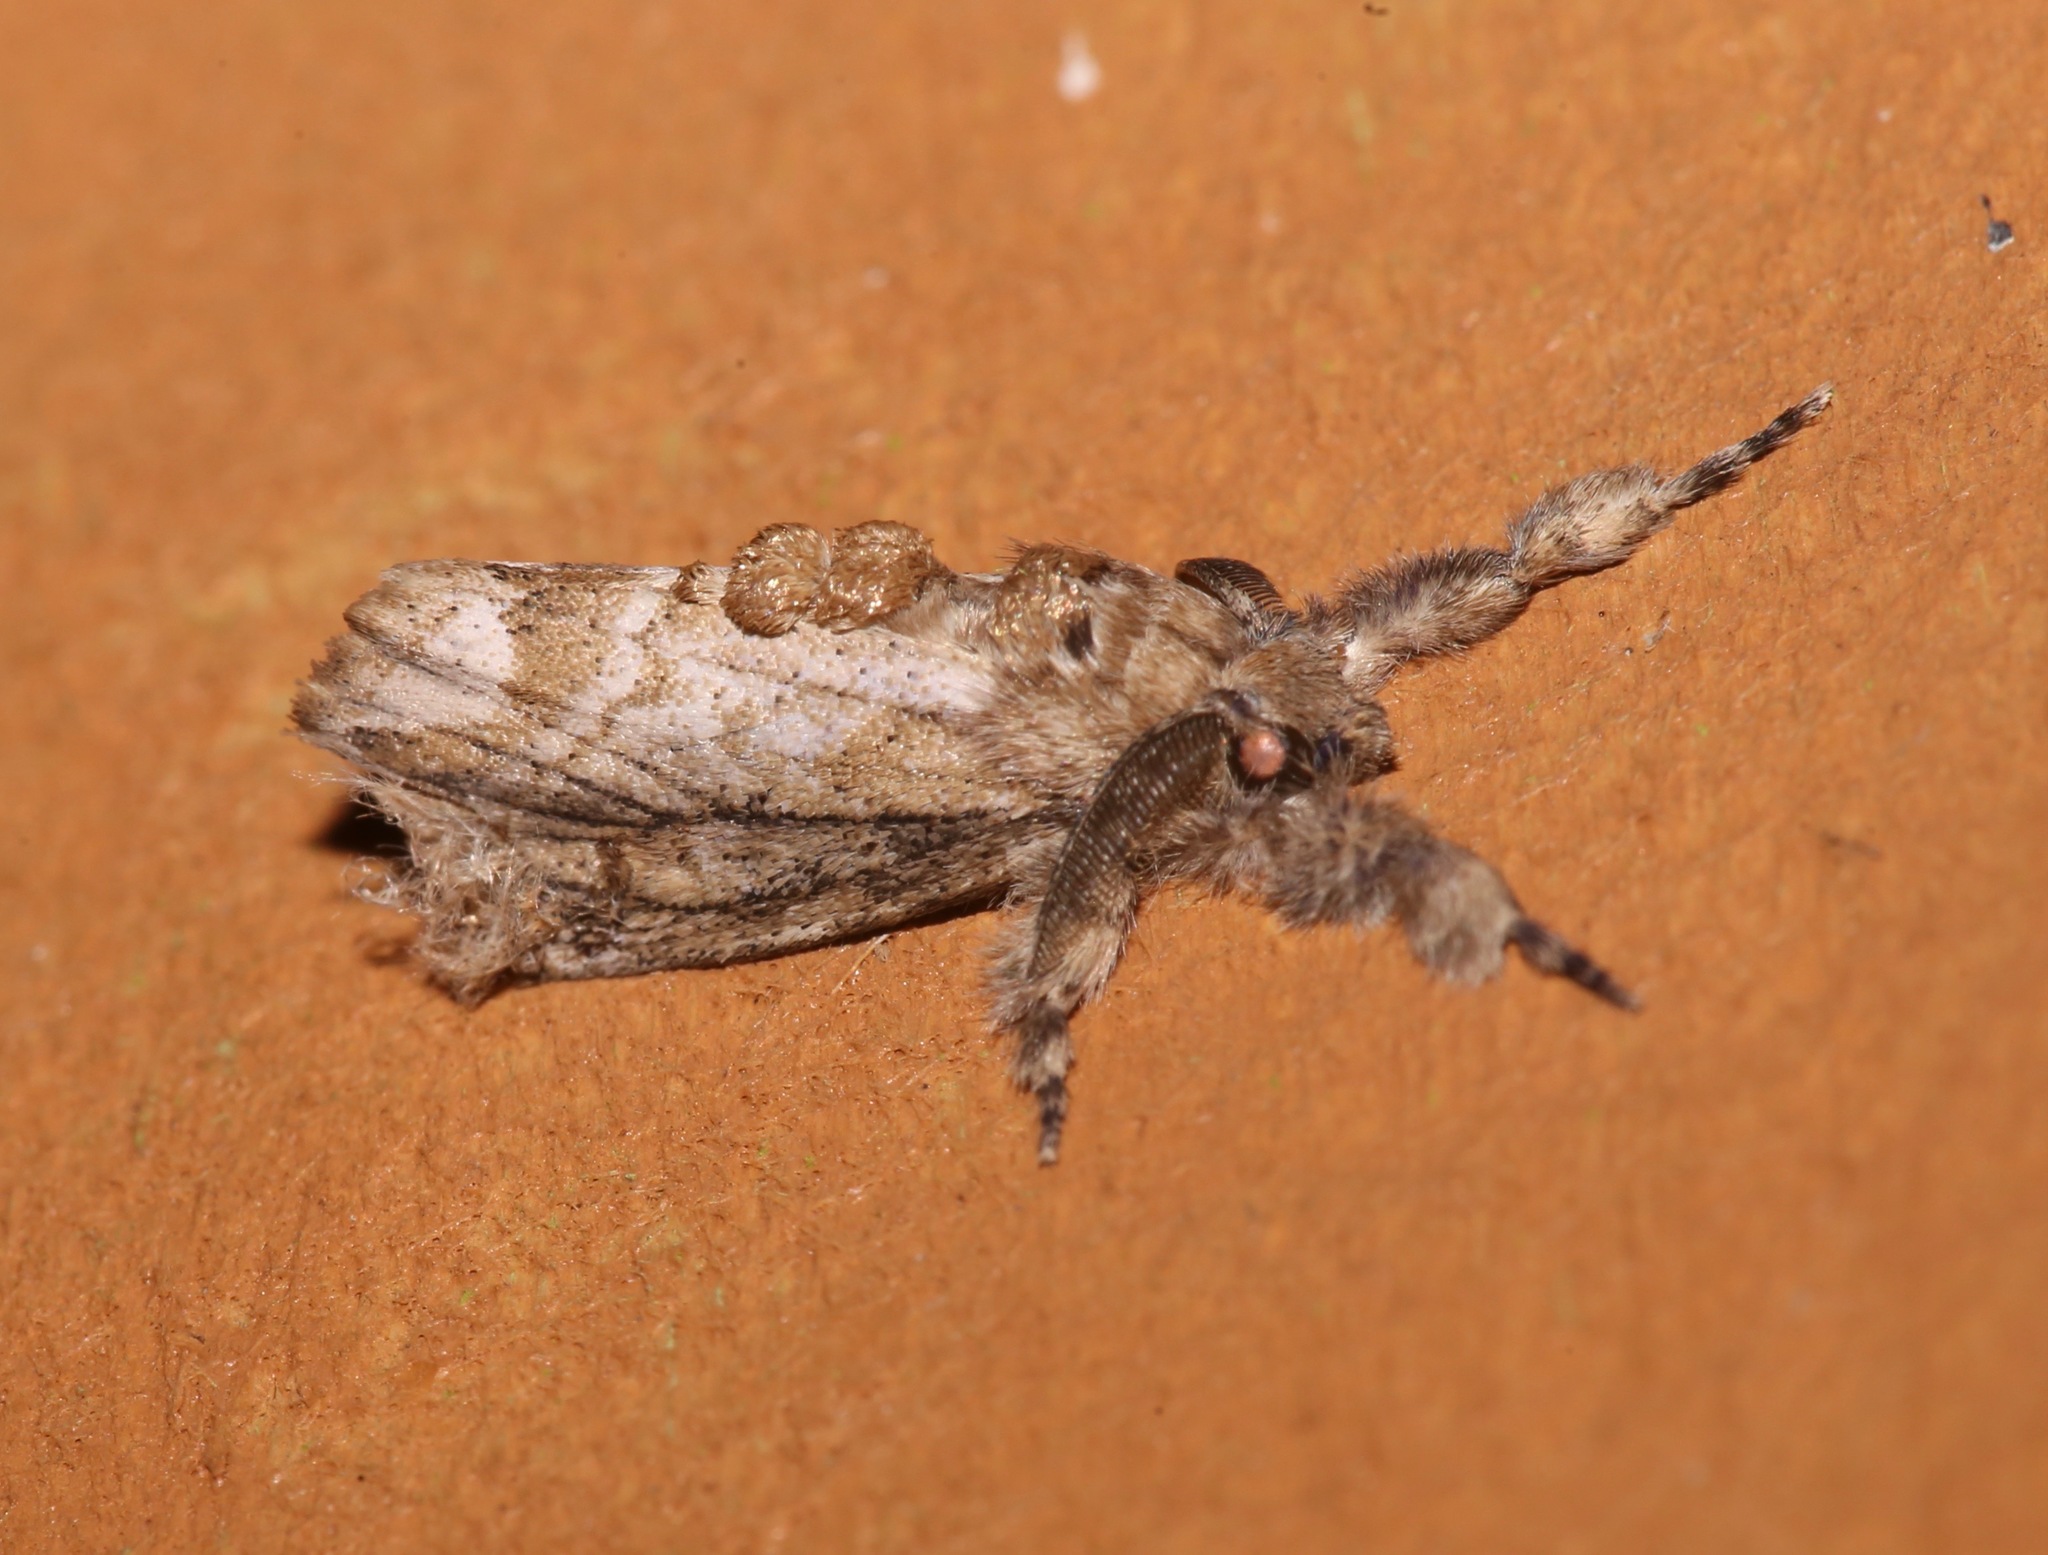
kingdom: Animalia
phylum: Arthropoda
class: Insecta
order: Lepidoptera
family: Erebidae
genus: Dasychira
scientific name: Dasychira atrivenosa
